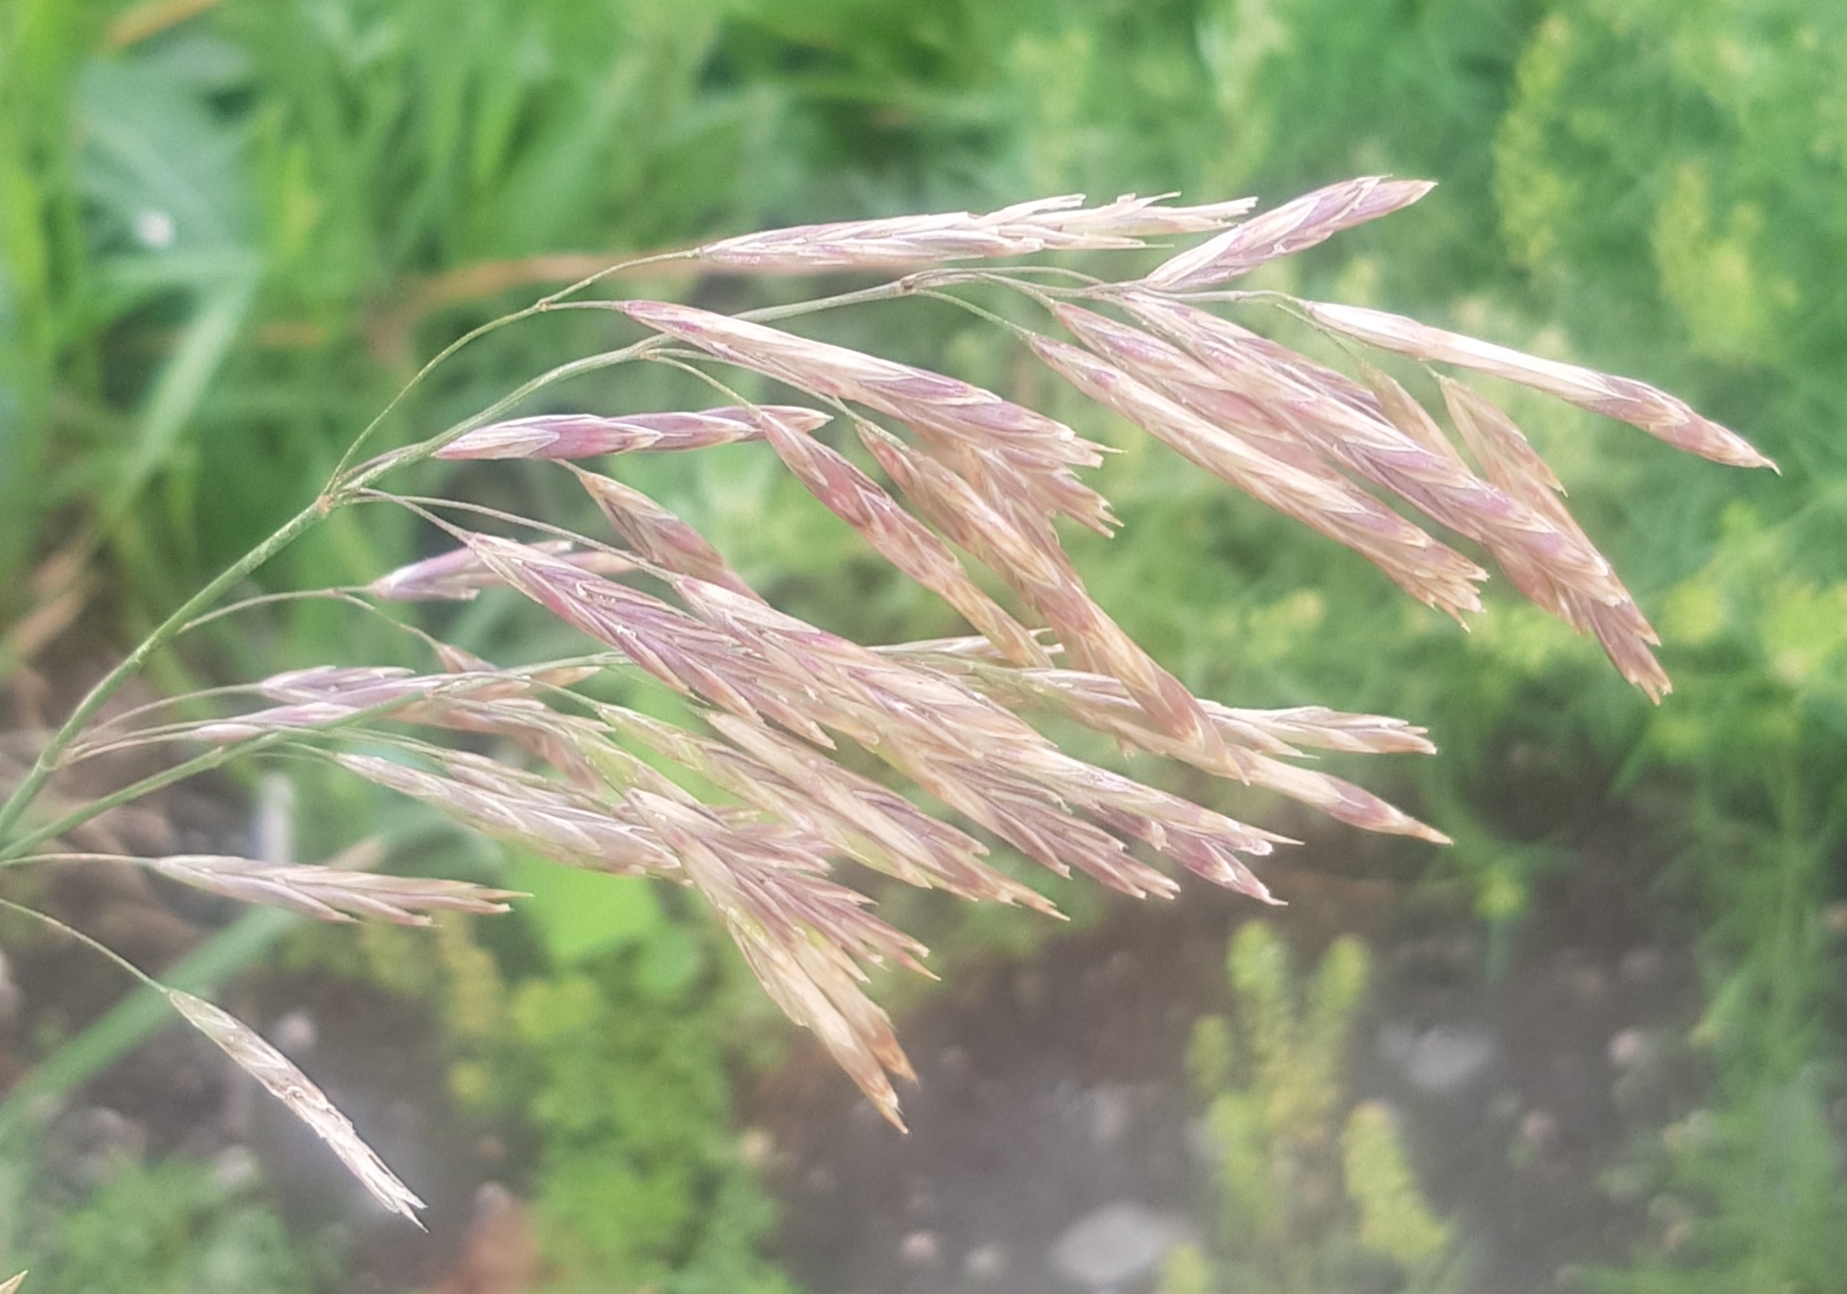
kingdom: Plantae
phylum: Tracheophyta
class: Liliopsida
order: Poales
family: Poaceae
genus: Bromus
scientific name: Bromus inermis
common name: Smooth brome
